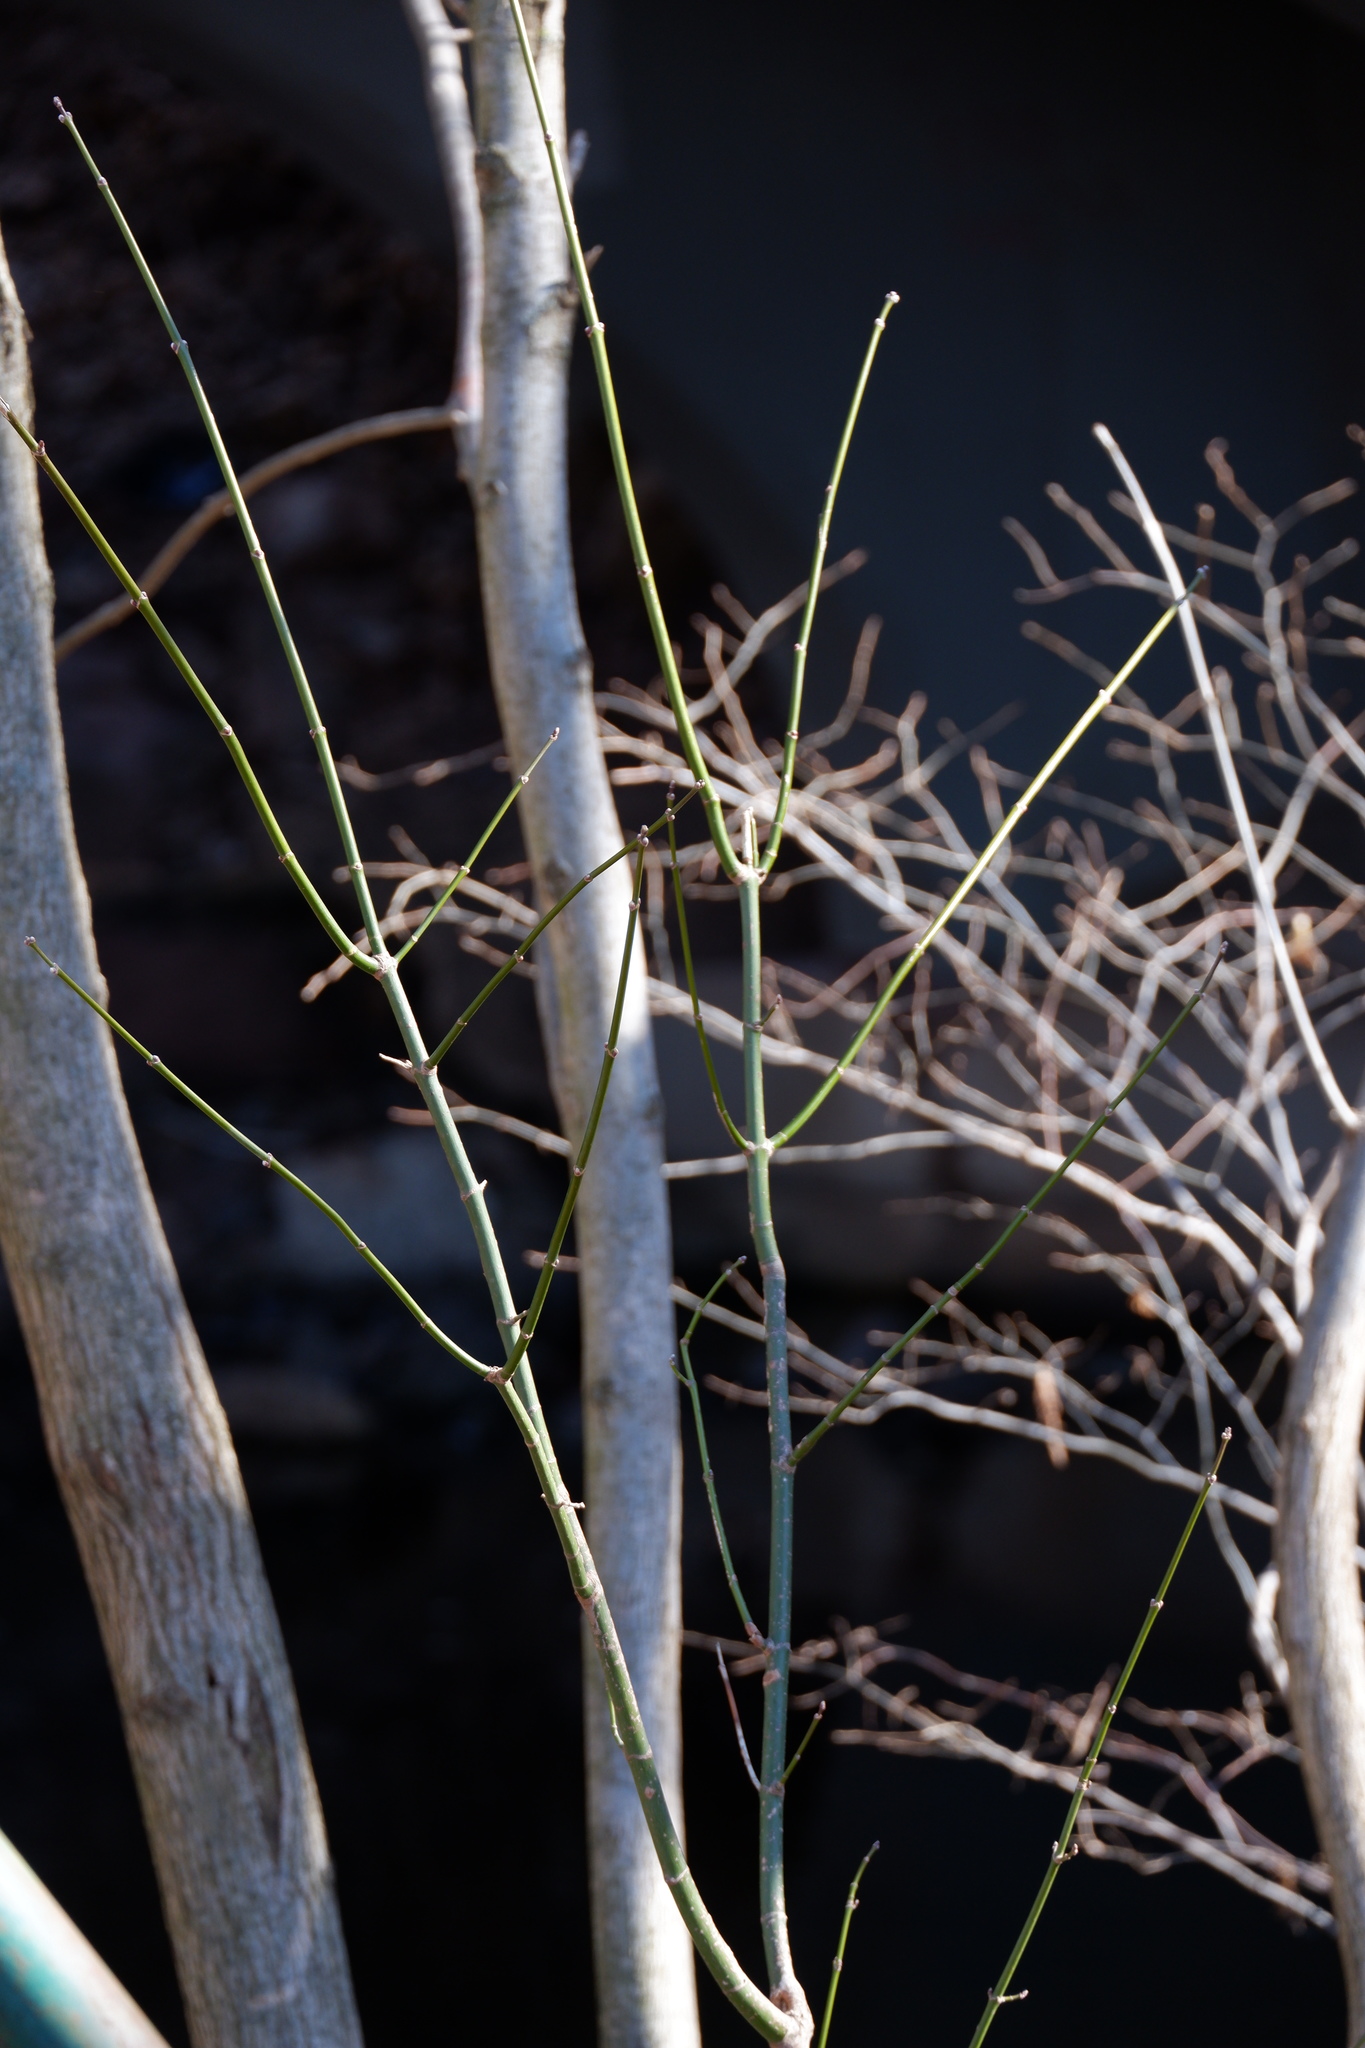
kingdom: Plantae
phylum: Tracheophyta
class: Magnoliopsida
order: Sapindales
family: Sapindaceae
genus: Acer
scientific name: Acer negundo
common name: Ashleaf maple
